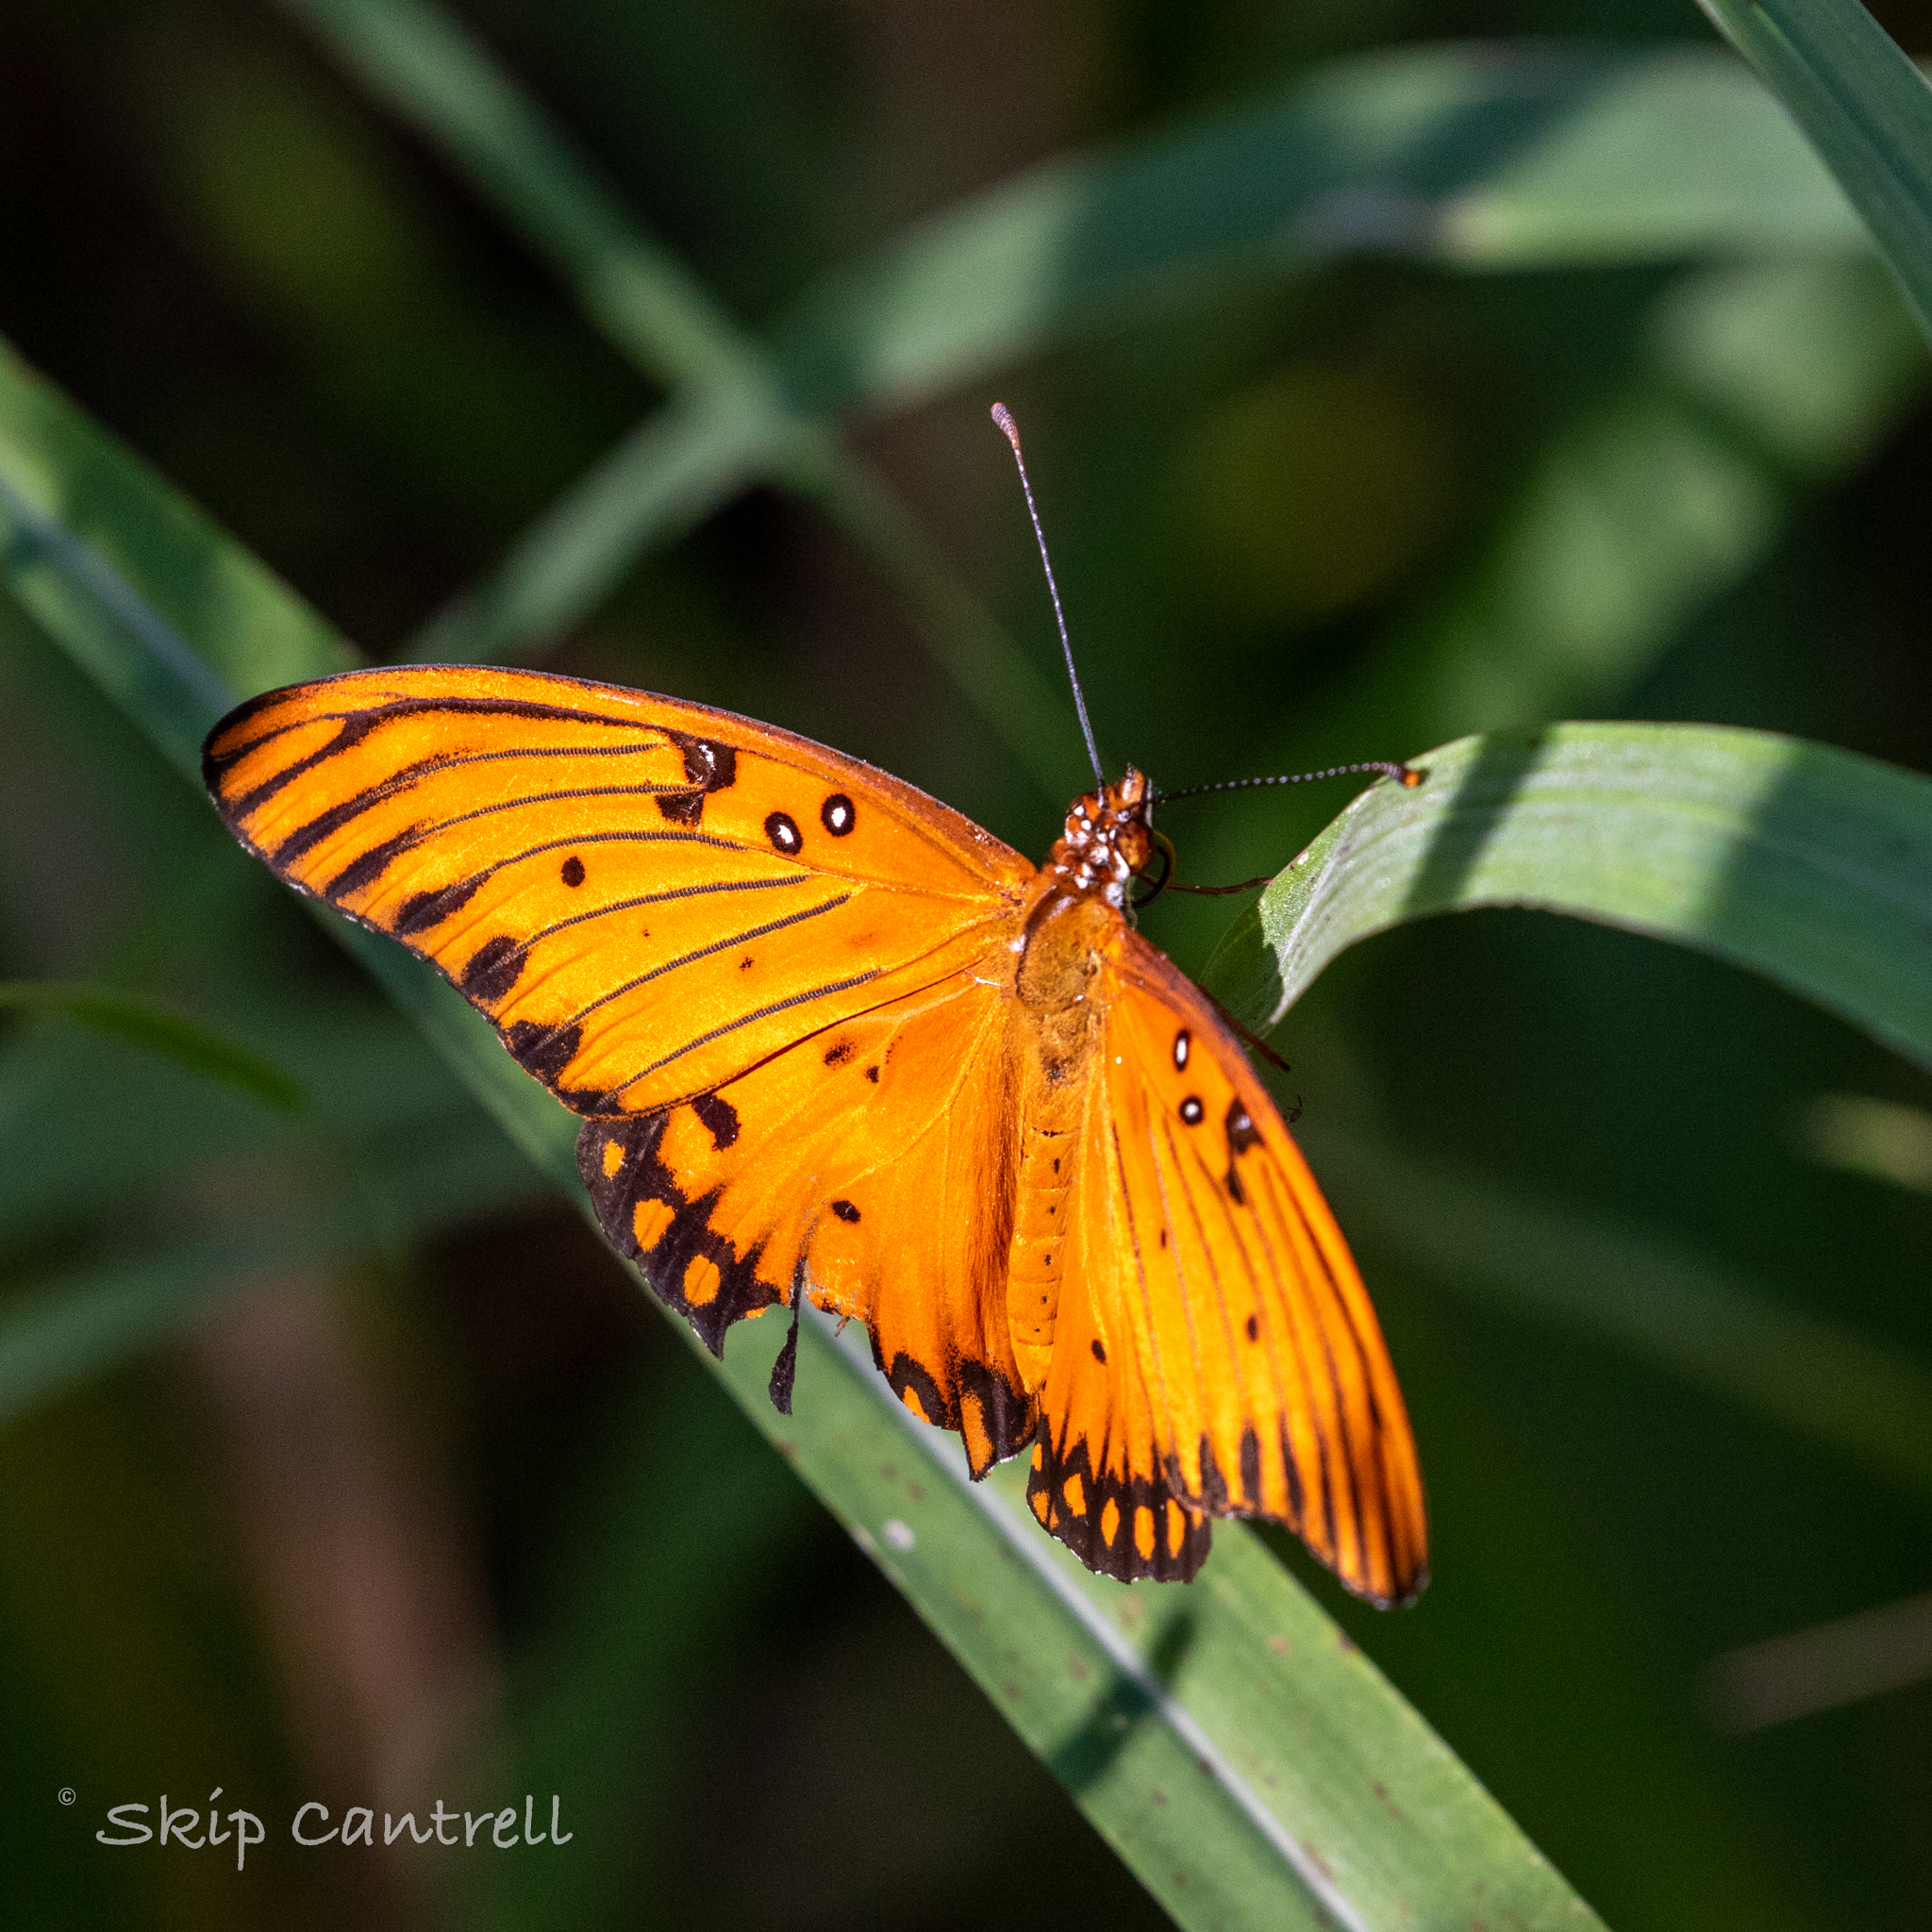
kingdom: Animalia
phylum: Arthropoda
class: Insecta
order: Lepidoptera
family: Nymphalidae
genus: Dione
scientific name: Dione vanillae
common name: Gulf fritillary
